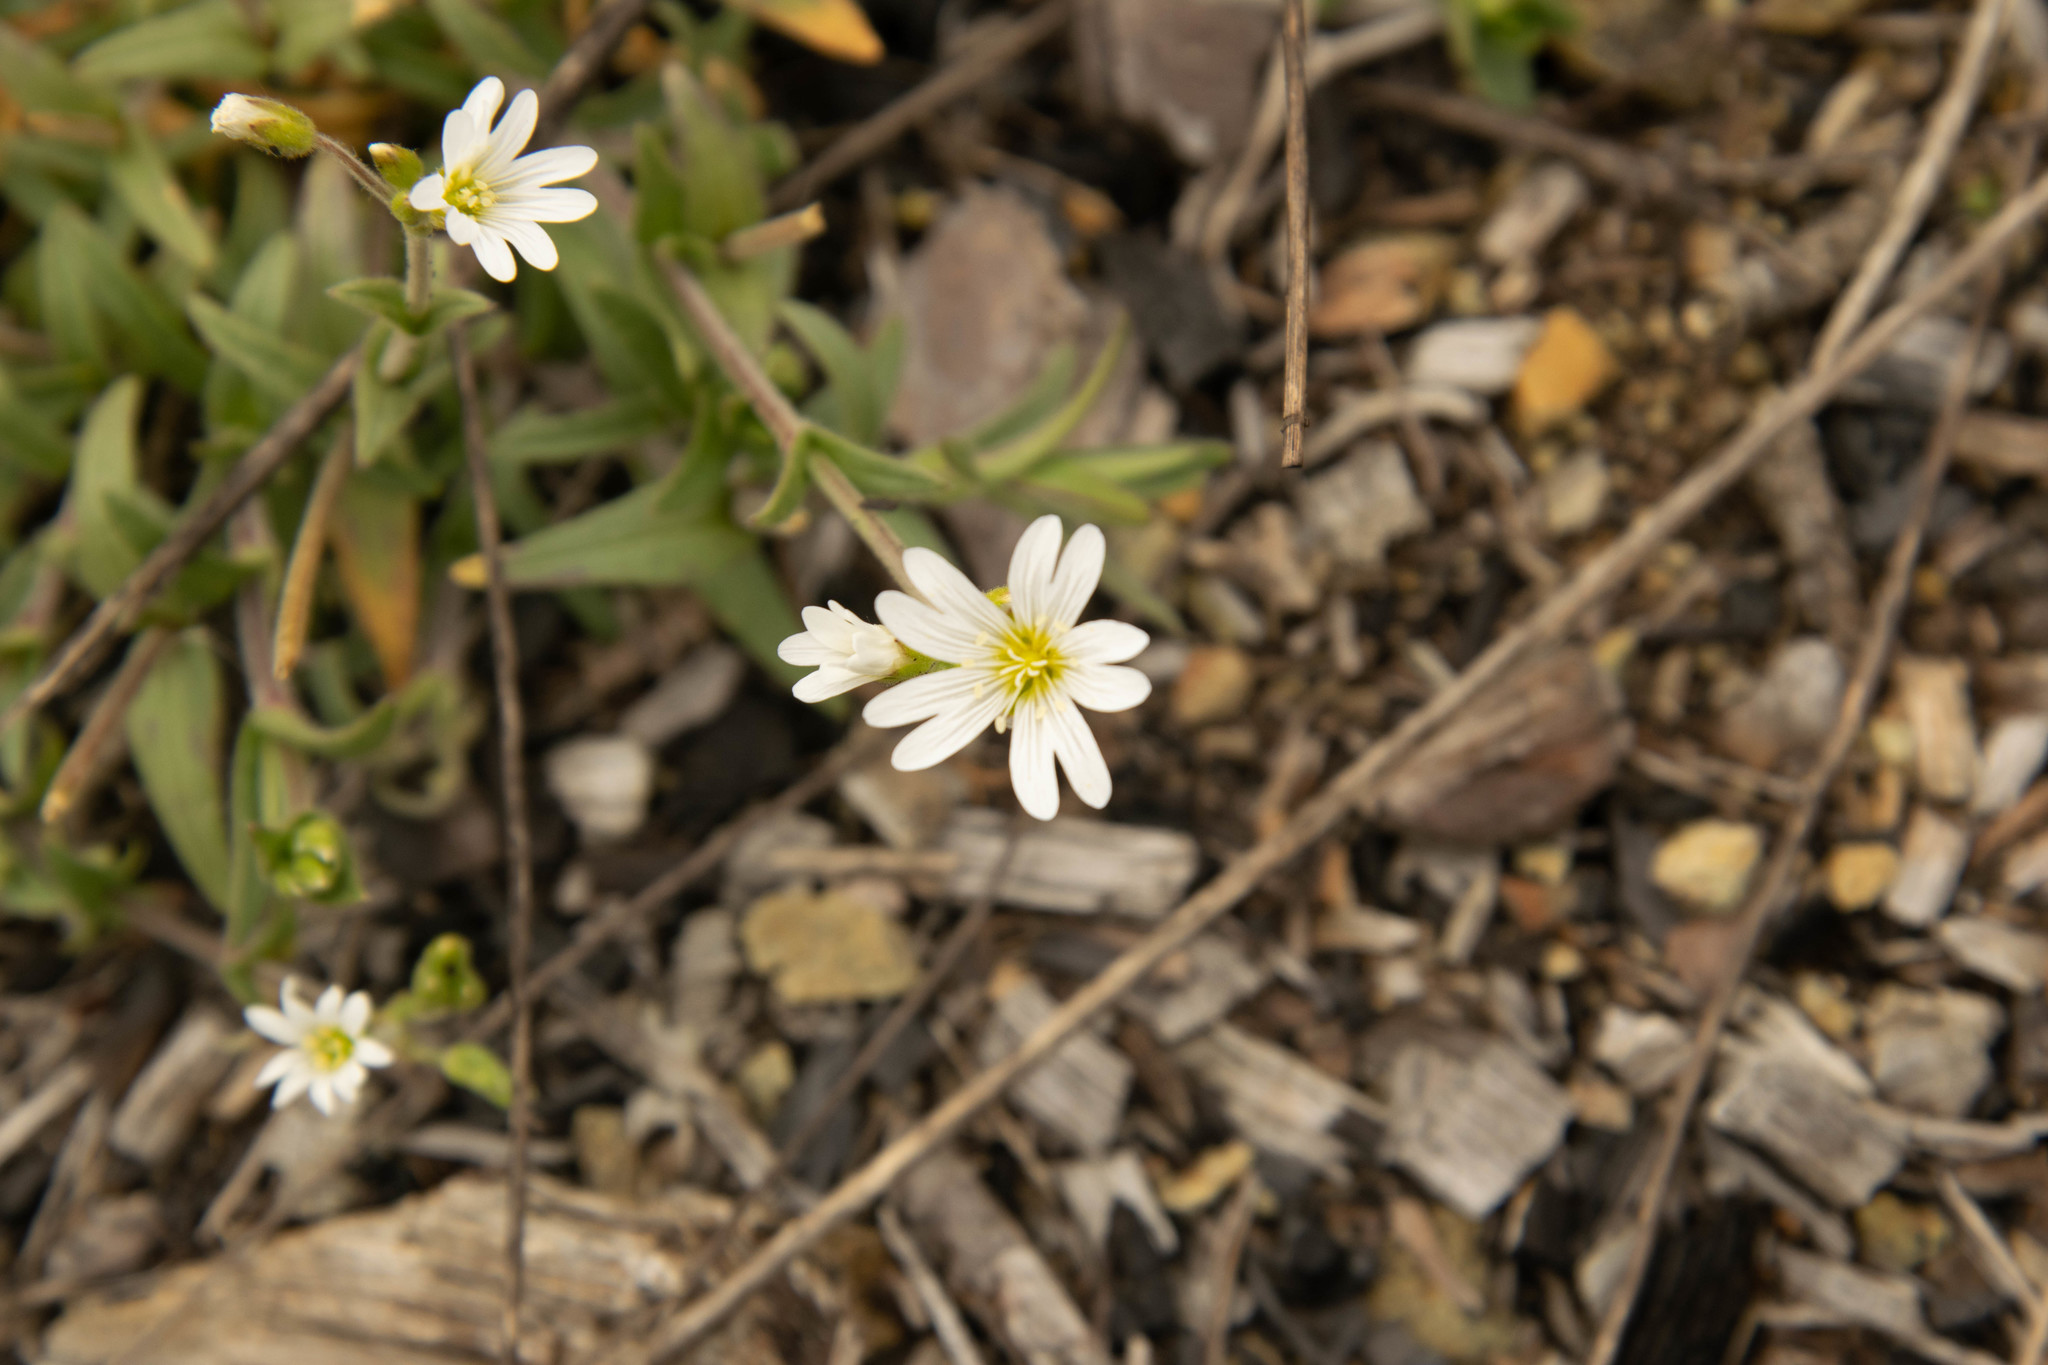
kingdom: Plantae
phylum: Tracheophyta
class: Magnoliopsida
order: Caryophyllales
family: Caryophyllaceae
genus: Cerastium
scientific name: Cerastium velutinum
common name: Barren chickweed
